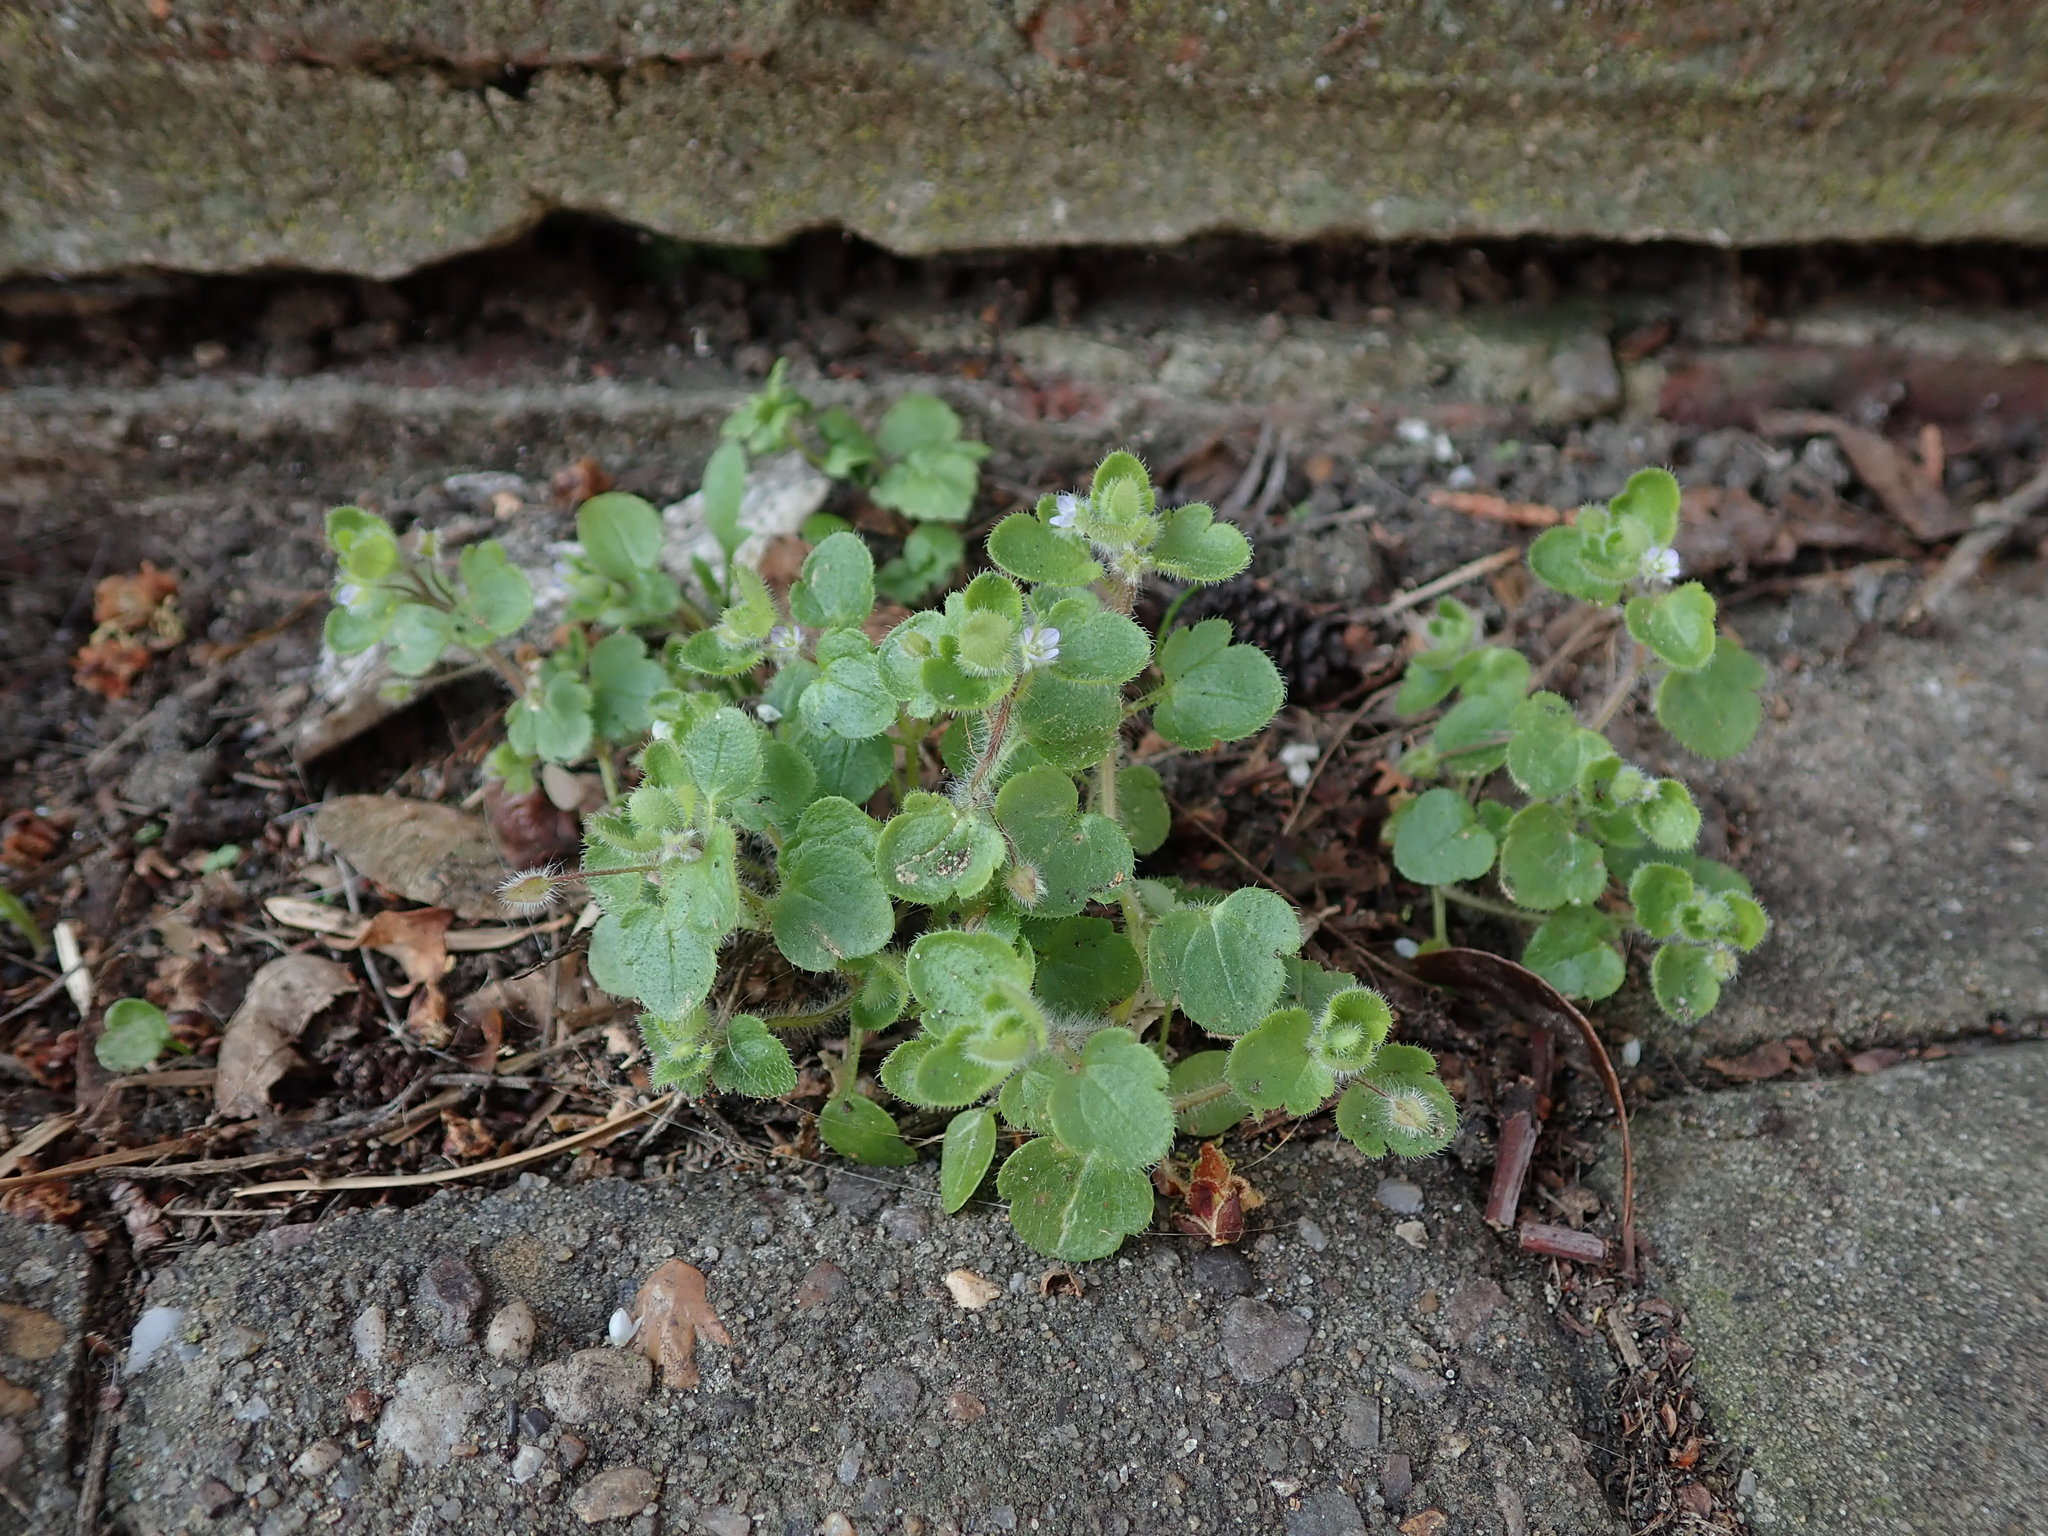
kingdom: Plantae
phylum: Tracheophyta
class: Magnoliopsida
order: Lamiales
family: Plantaginaceae
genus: Veronica
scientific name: Veronica sublobata
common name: False ivy-leaved speedwell
